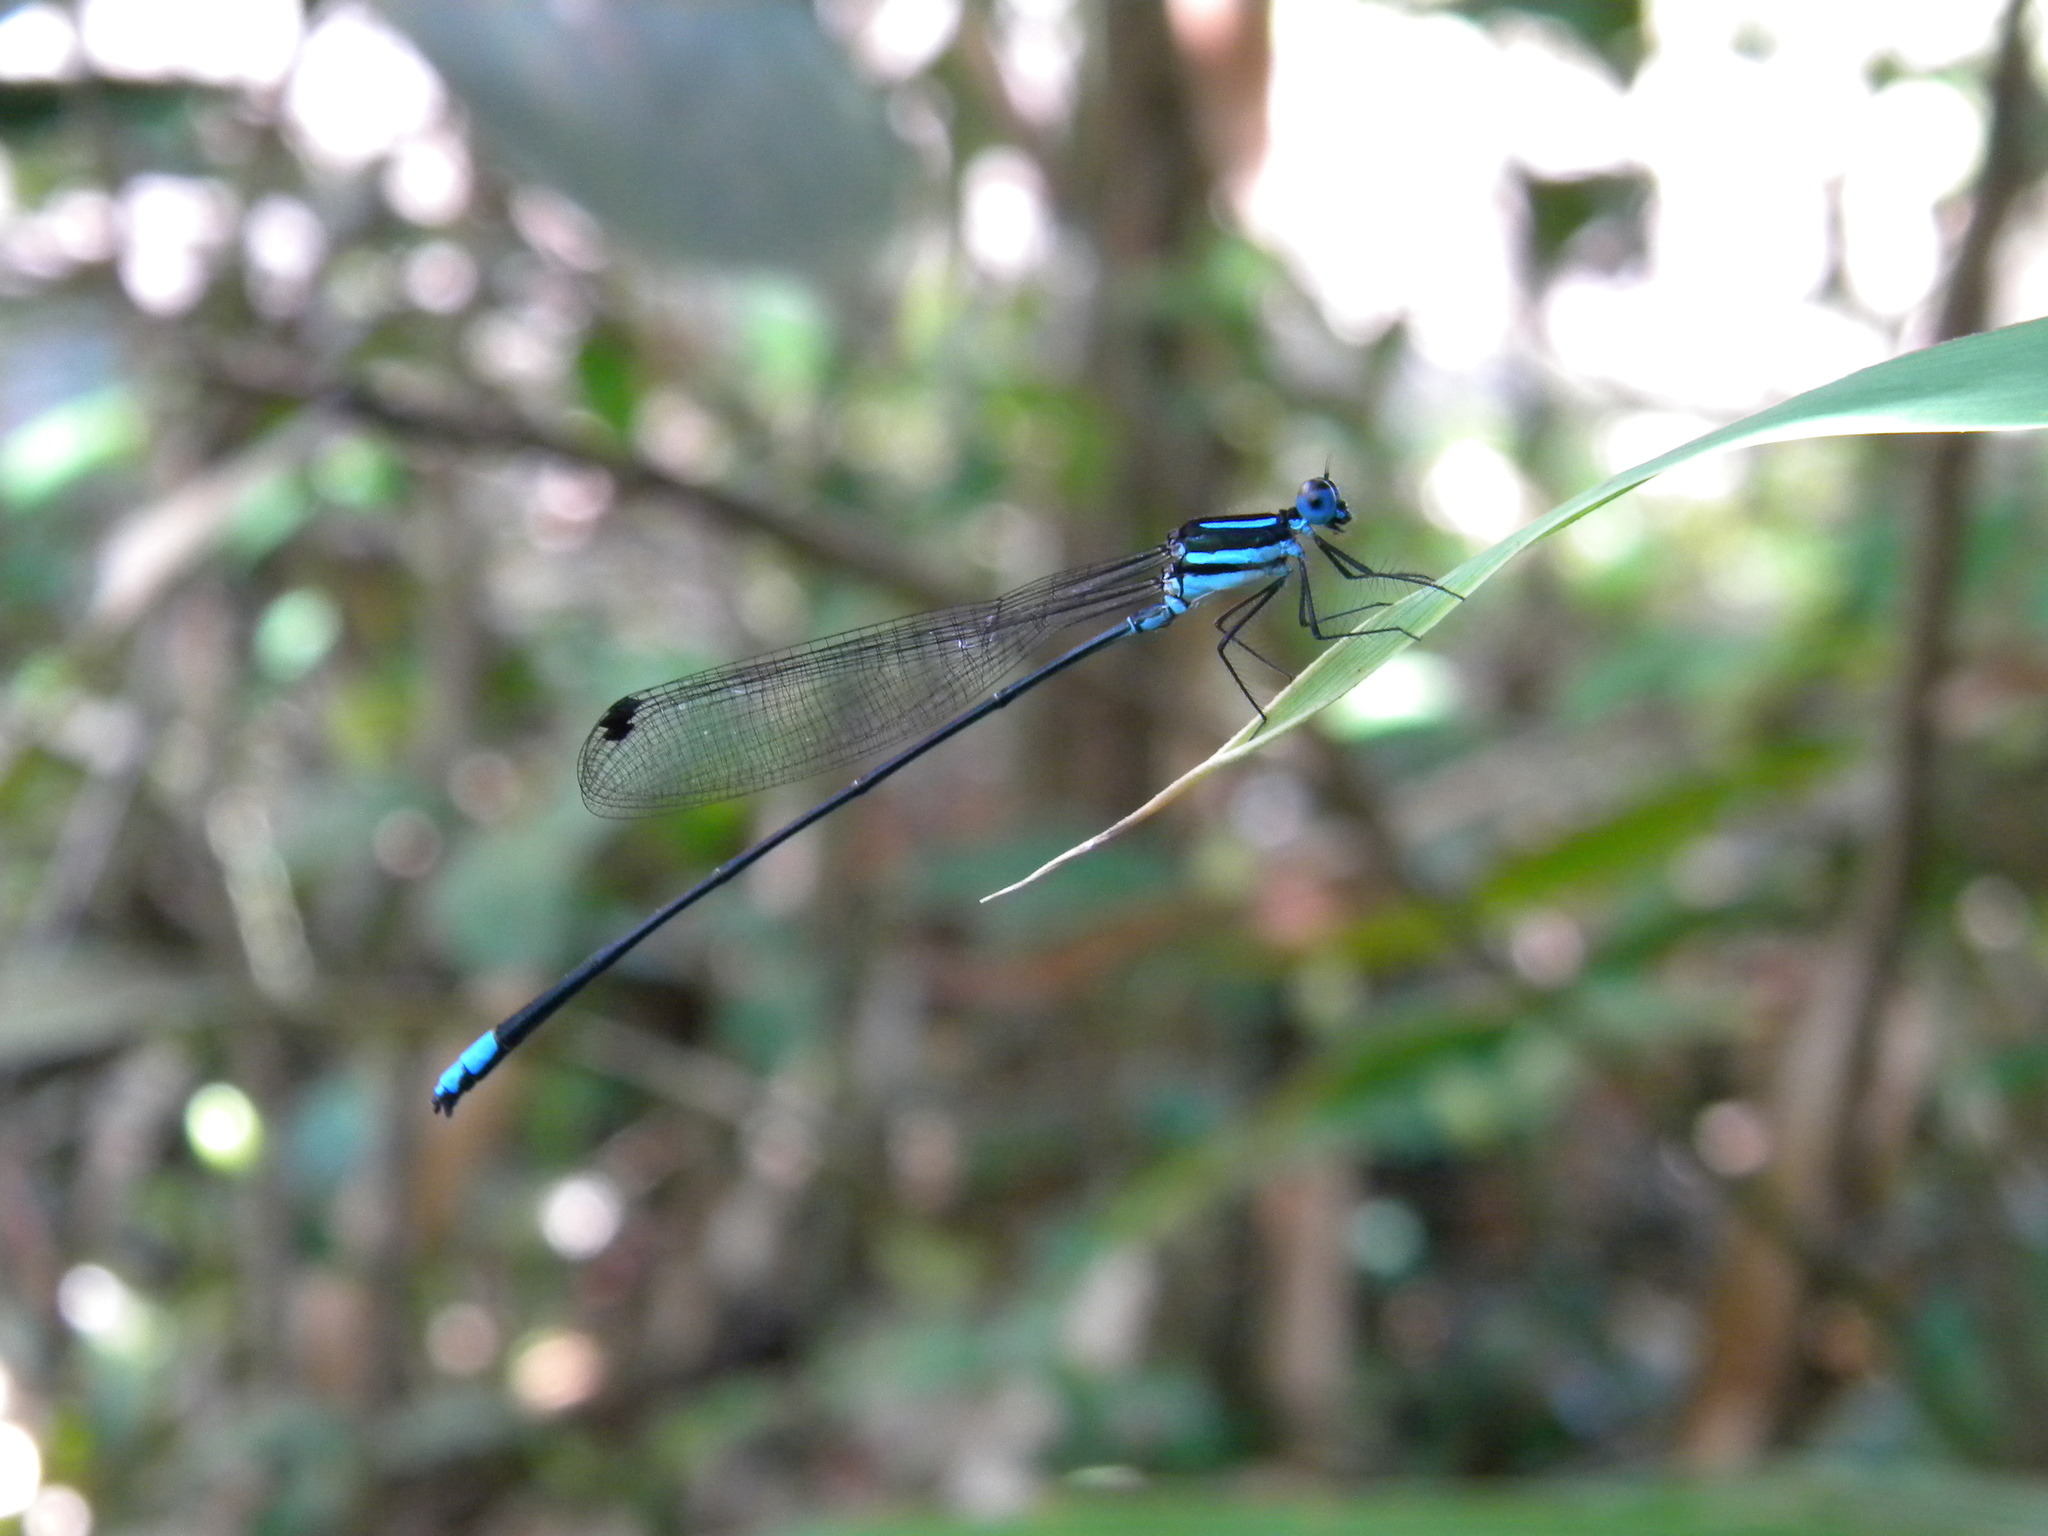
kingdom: Animalia
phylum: Arthropoda
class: Insecta
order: Odonata
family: Platycnemididae
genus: Esme
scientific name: Esme cyaneovittata
